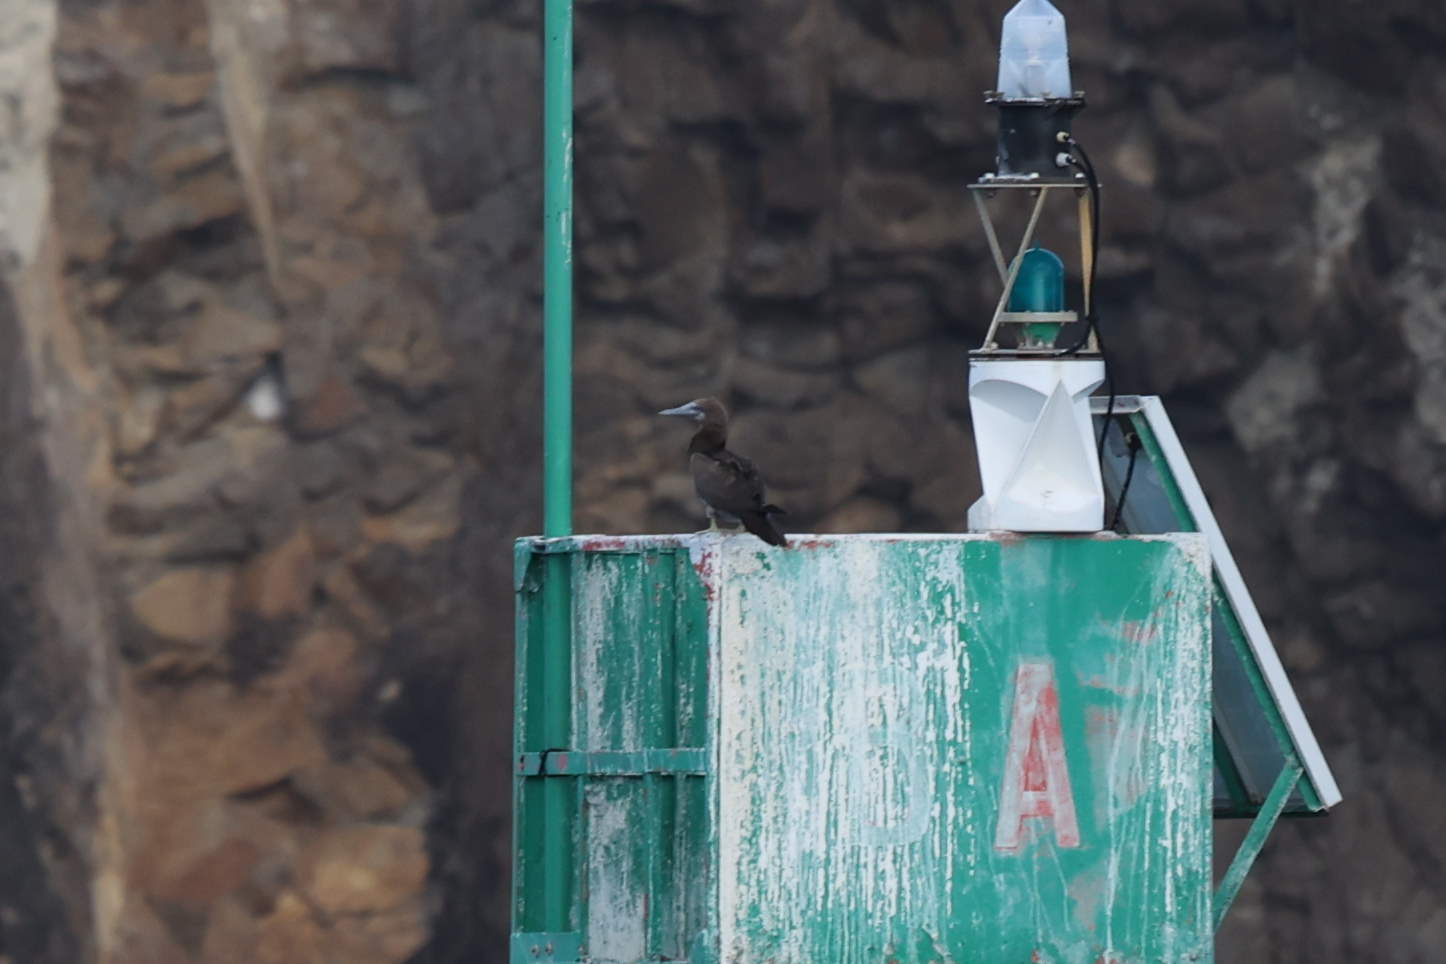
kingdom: Animalia
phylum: Chordata
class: Aves
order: Suliformes
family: Sulidae
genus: Sula
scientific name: Sula leucogaster
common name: Brown booby
